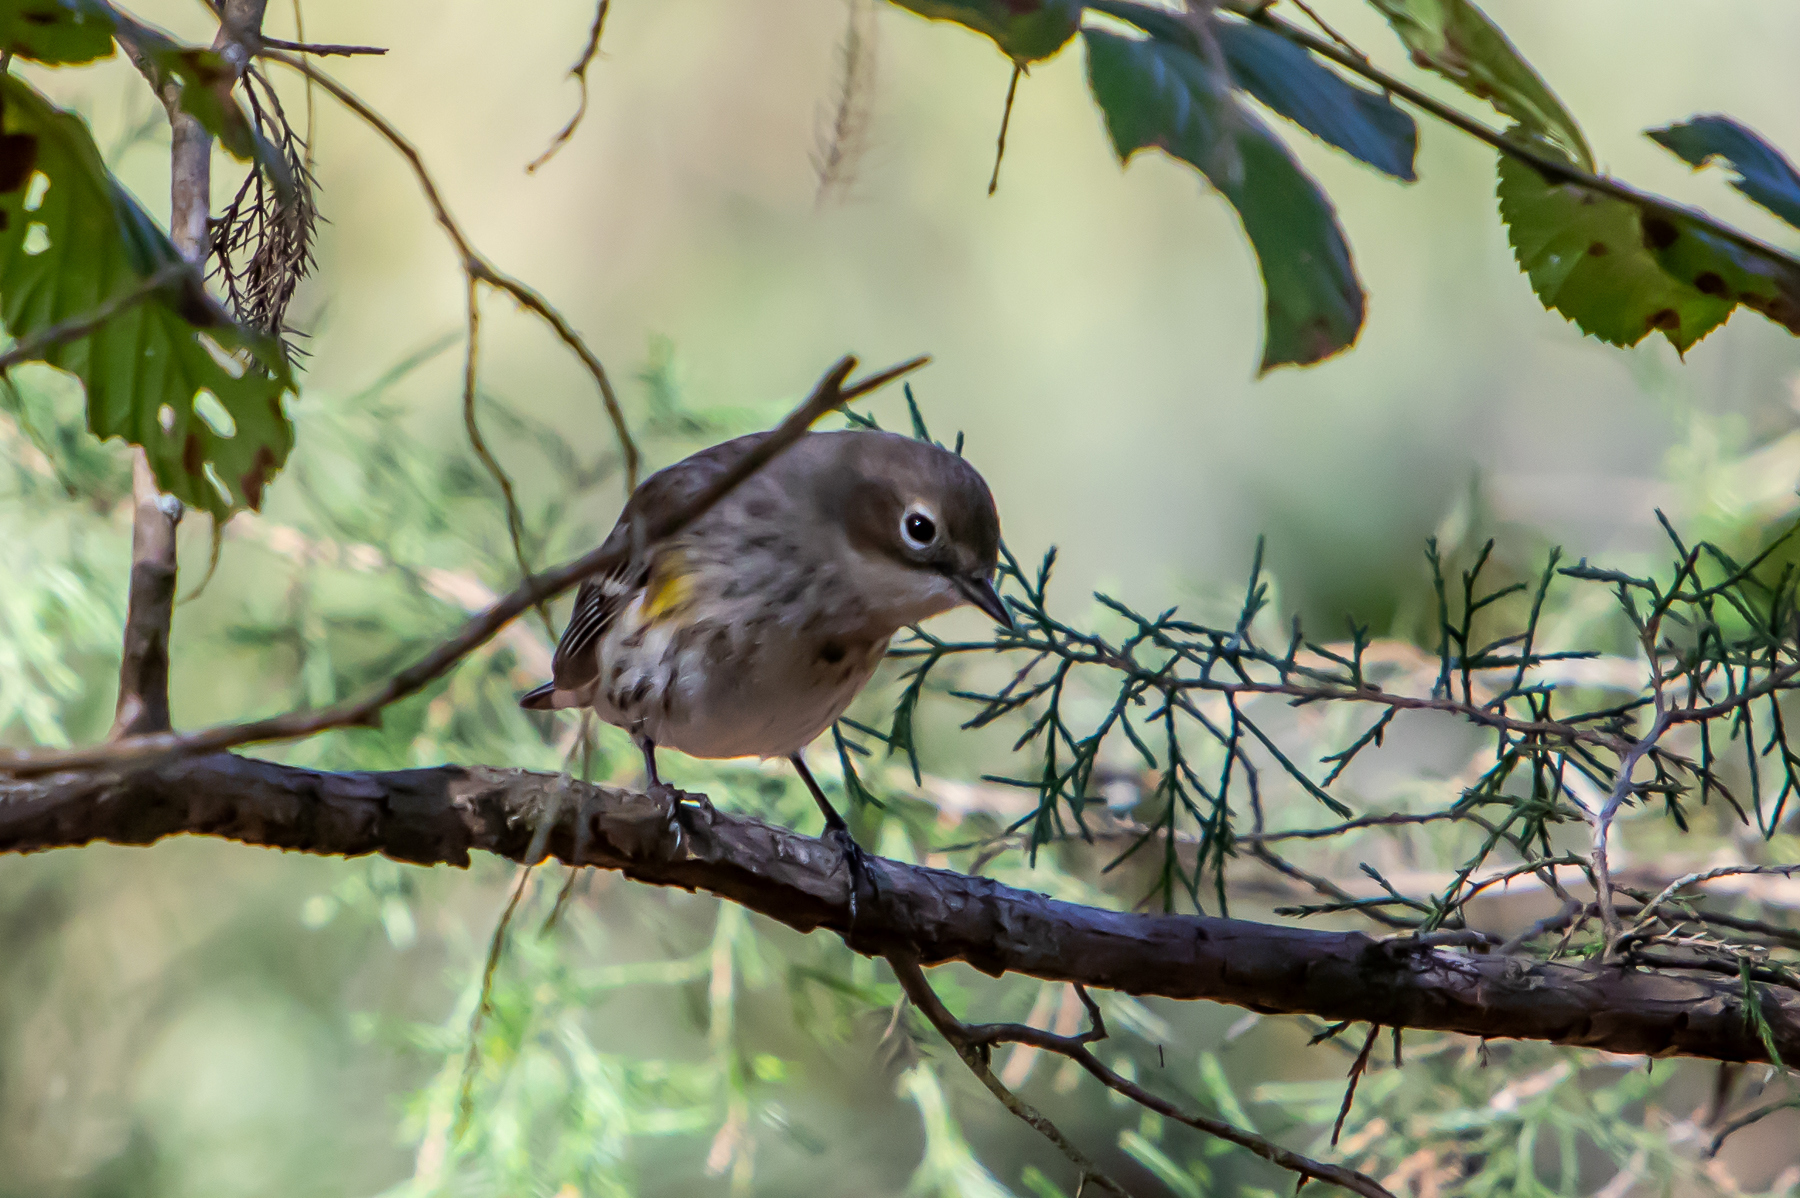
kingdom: Animalia
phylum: Chordata
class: Aves
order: Passeriformes
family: Parulidae
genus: Setophaga
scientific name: Setophaga coronata
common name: Myrtle warbler
